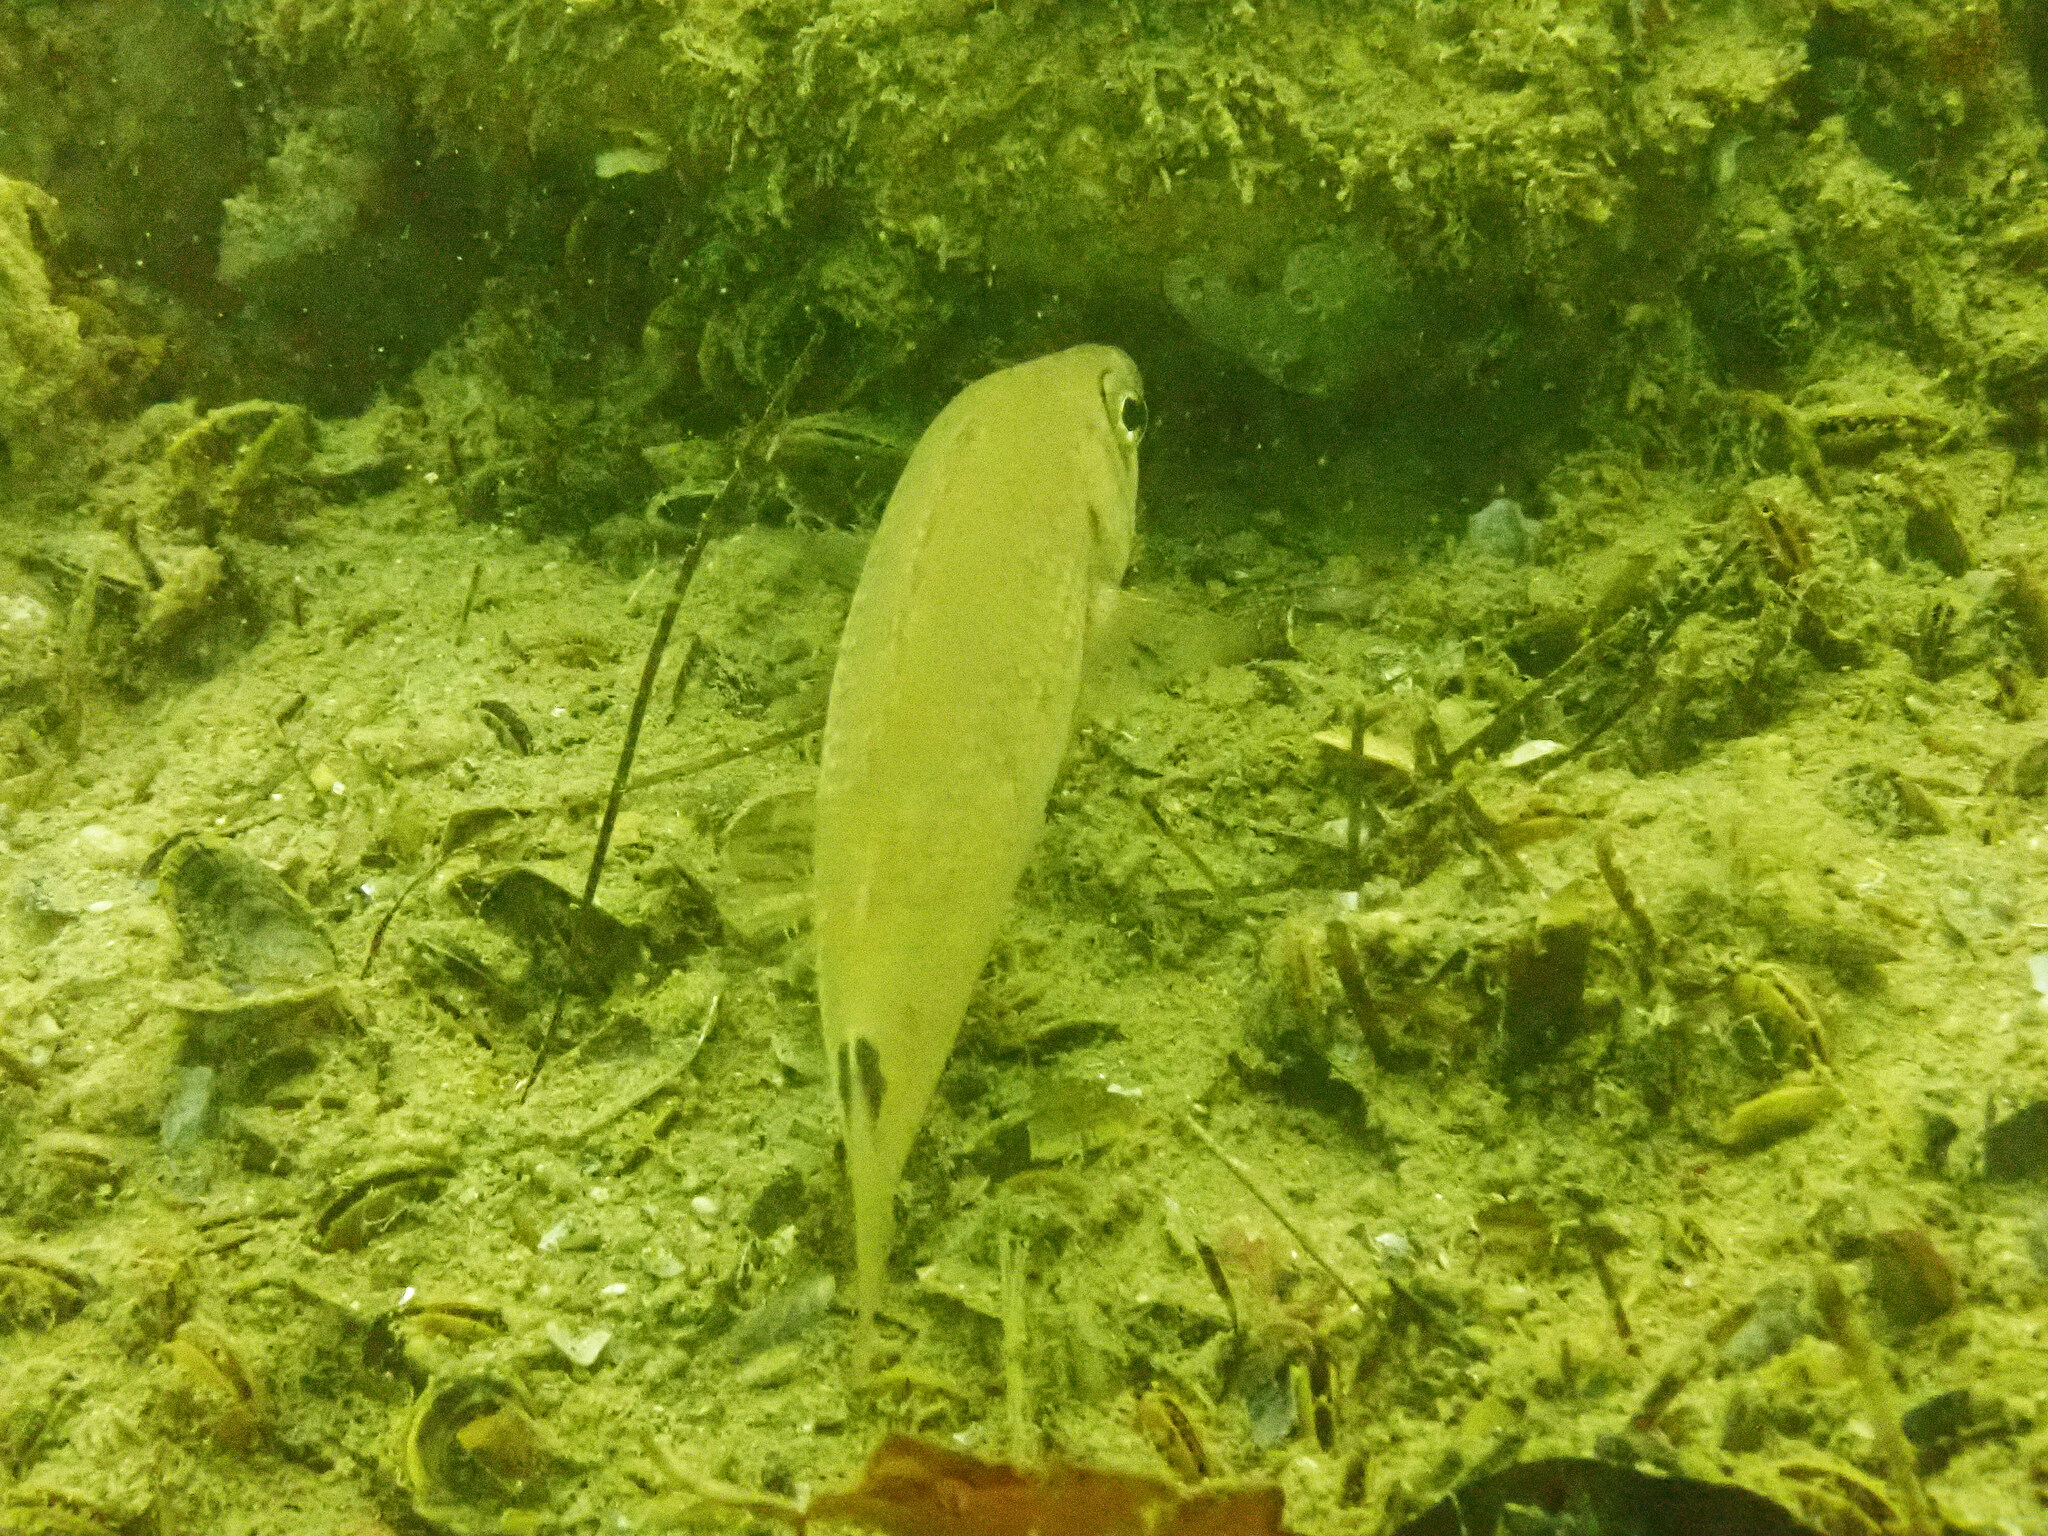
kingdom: Animalia
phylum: Chordata
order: Perciformes
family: Labridae
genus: Ctenolabrus
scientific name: Ctenolabrus rupestris
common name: Goldsinny
